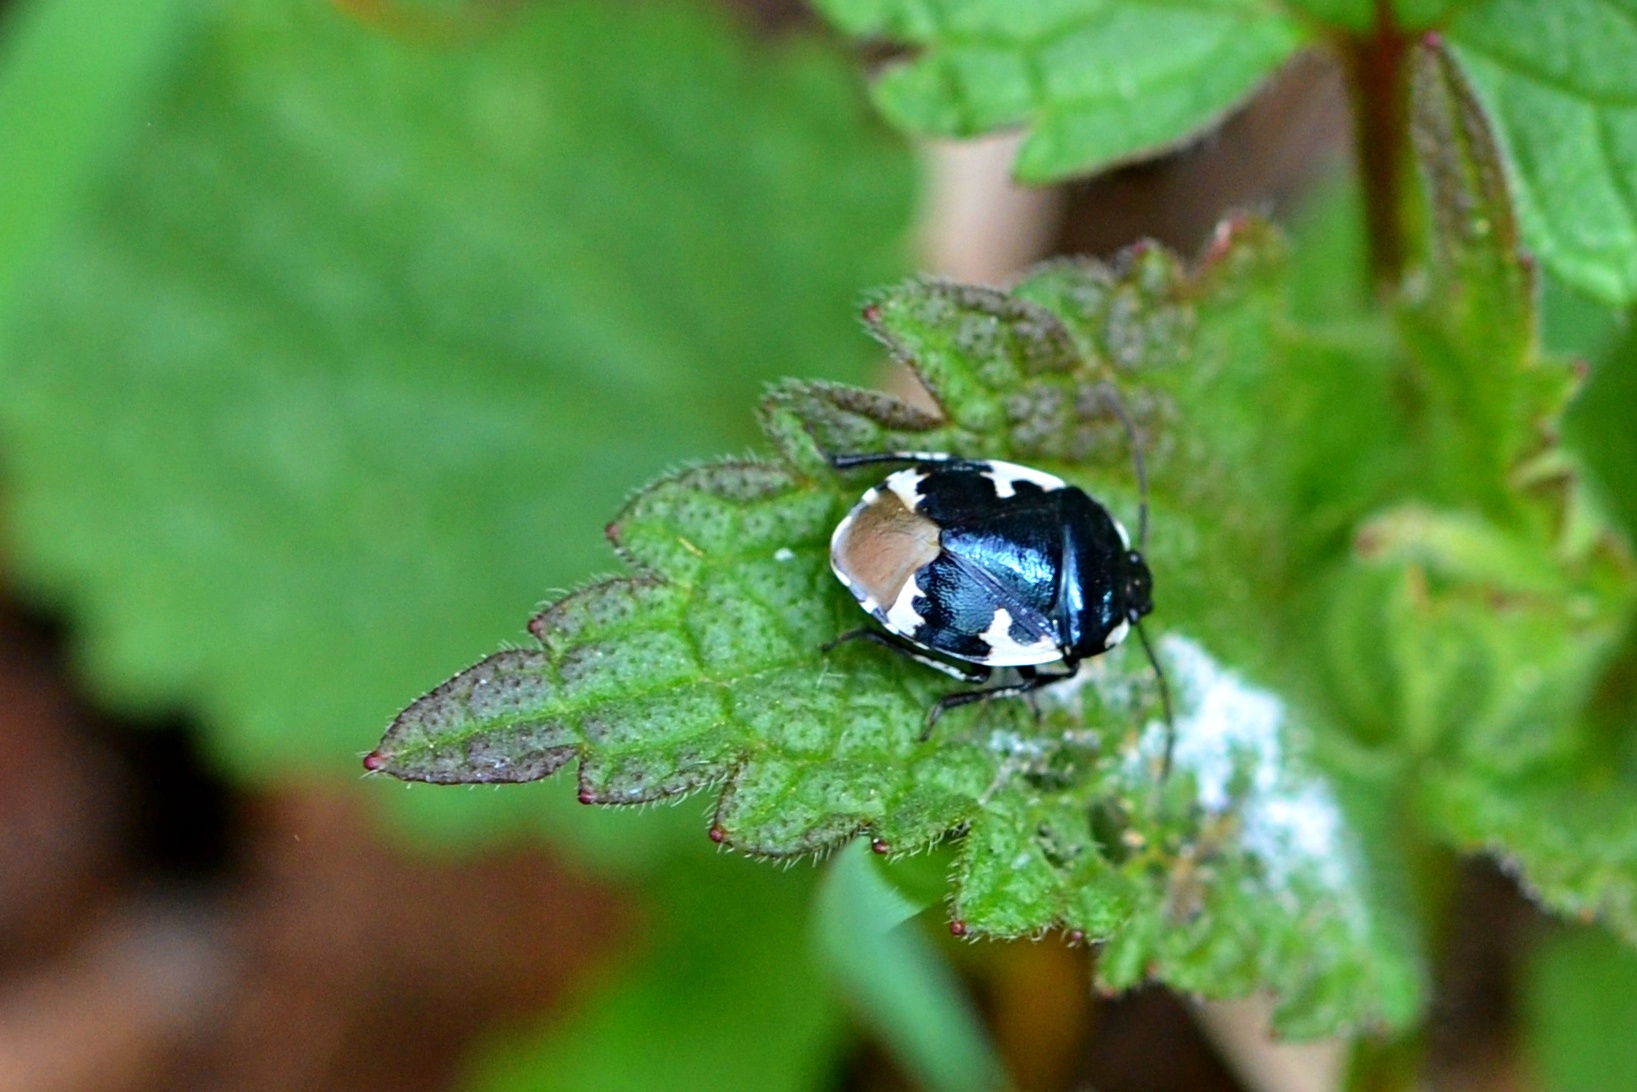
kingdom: Animalia
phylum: Arthropoda
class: Insecta
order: Hemiptera
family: Cydnidae
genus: Tritomegas
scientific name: Tritomegas bicolor
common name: Pied shieldbug
